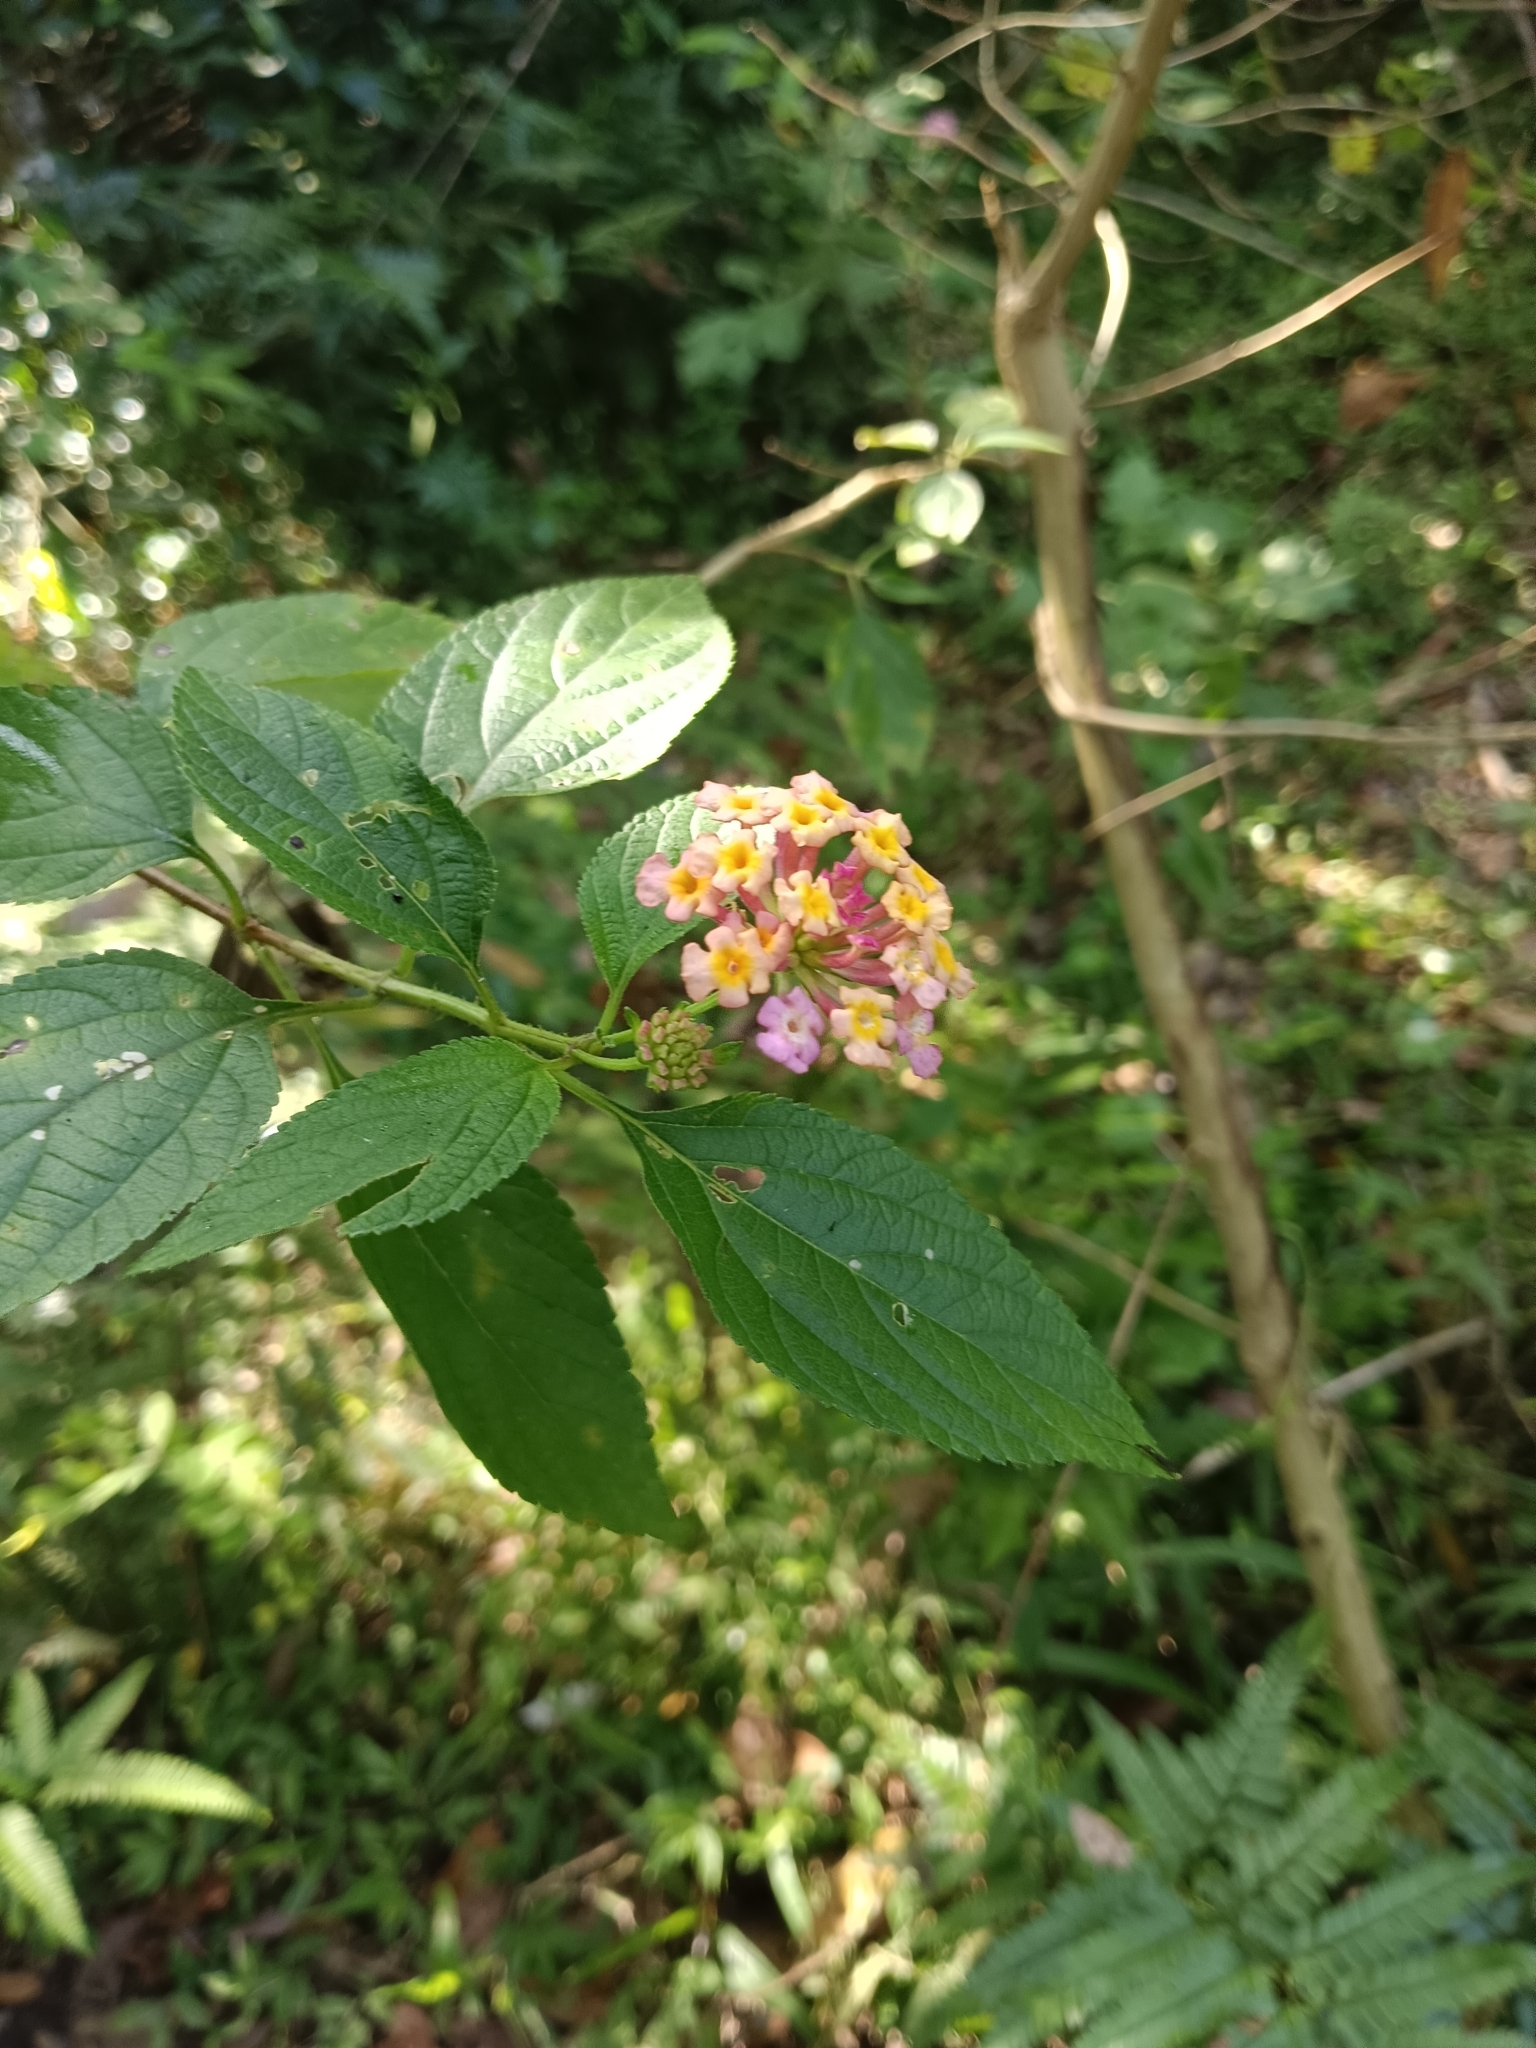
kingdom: Plantae
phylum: Tracheophyta
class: Magnoliopsida
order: Lamiales
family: Verbenaceae
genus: Lantana
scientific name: Lantana camara
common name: Lantana
